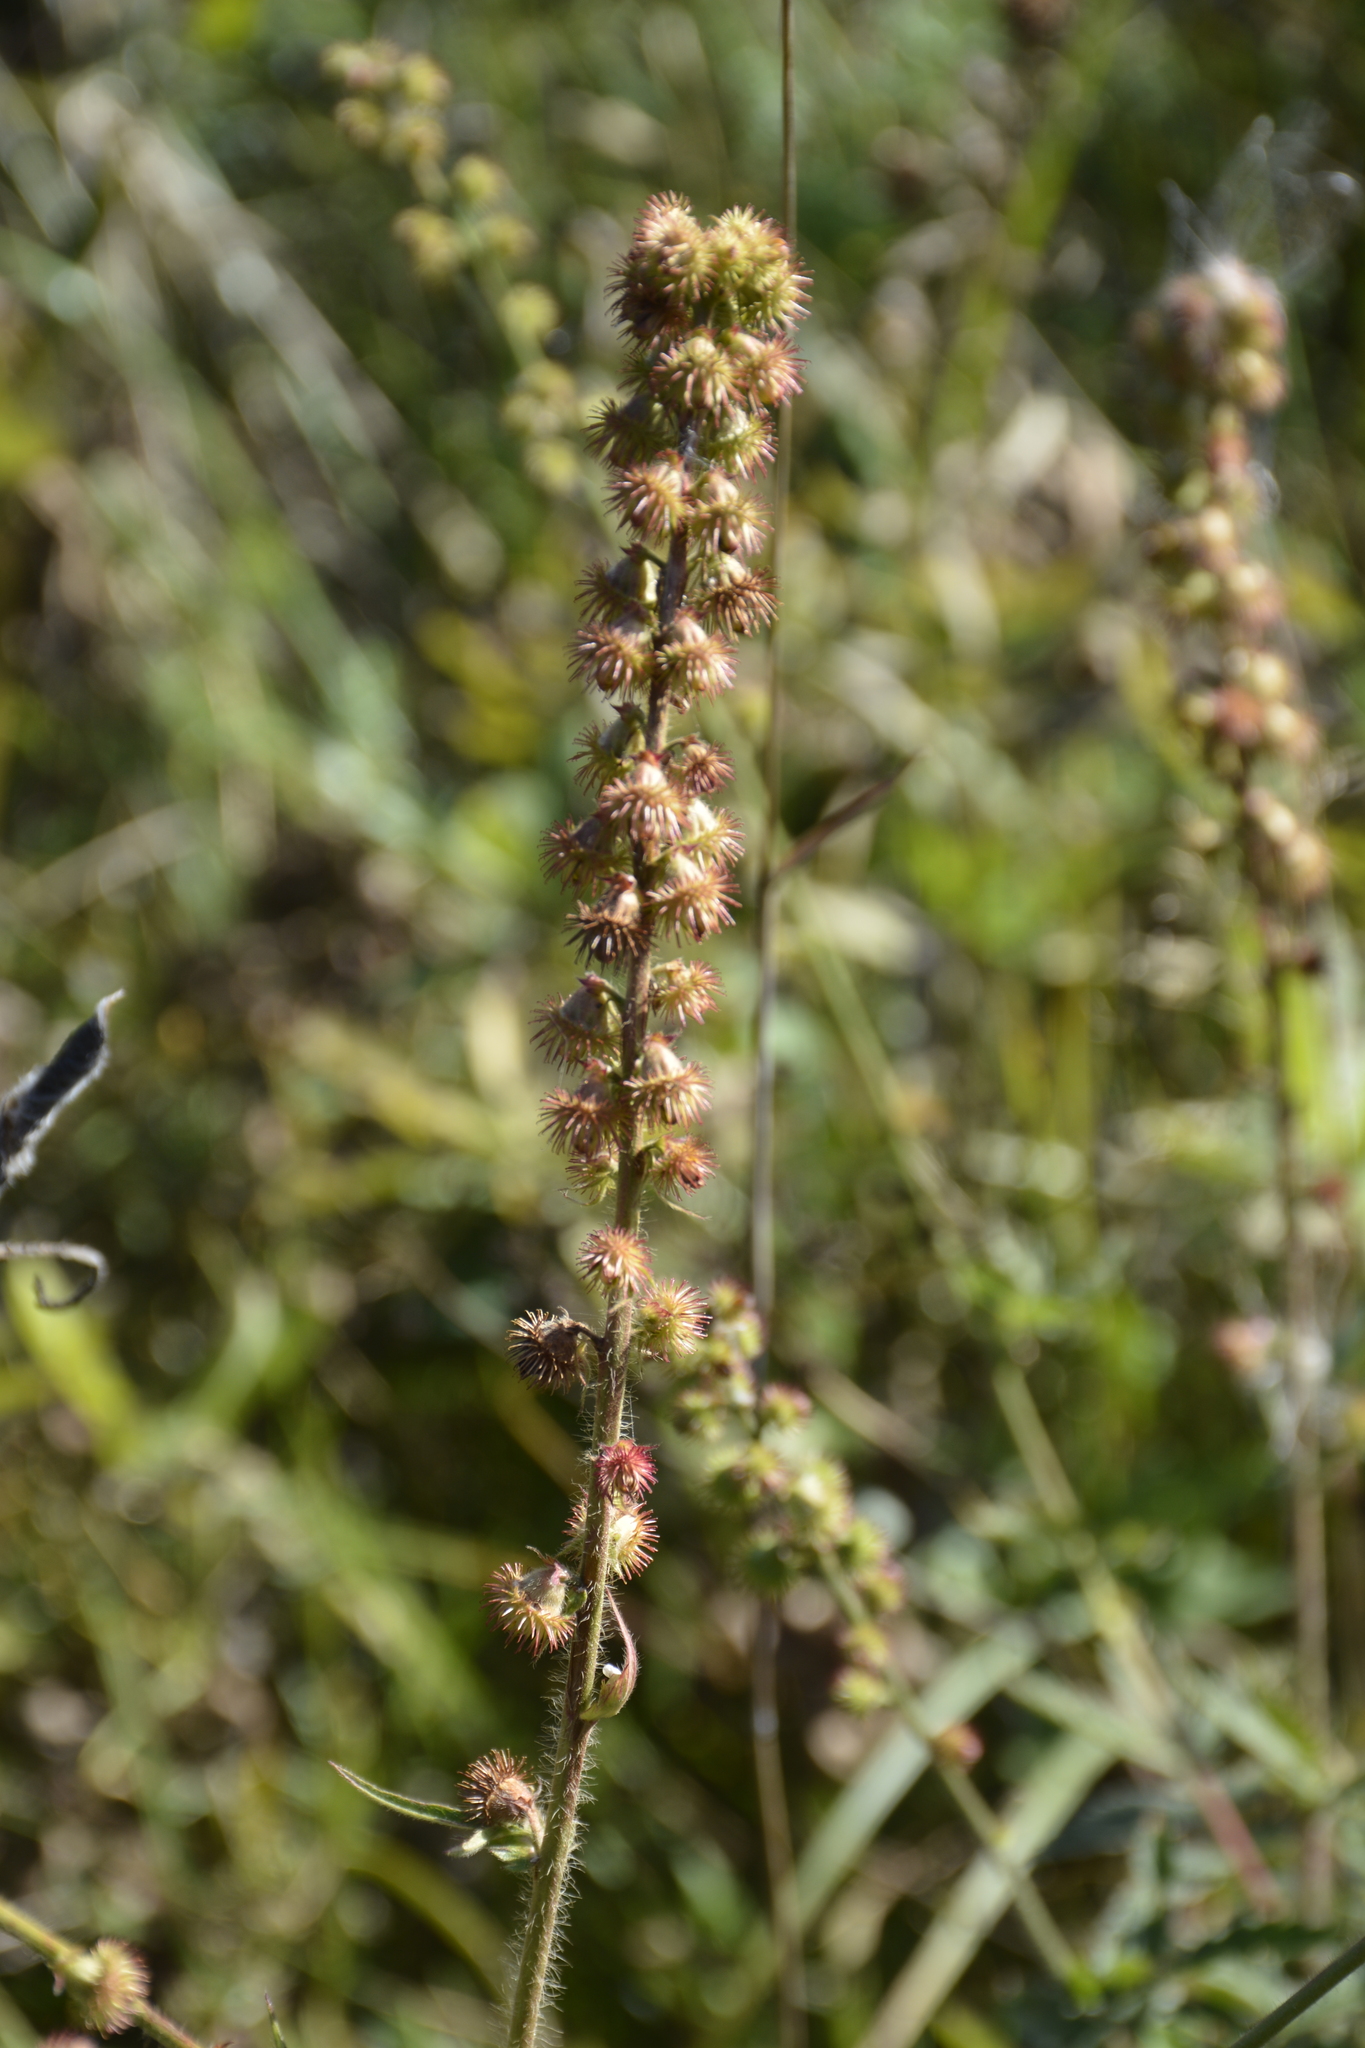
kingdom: Plantae
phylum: Tracheophyta
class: Magnoliopsida
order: Rosales
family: Rosaceae
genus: Agrimonia
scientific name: Agrimonia eupatoria
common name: Agrimony
